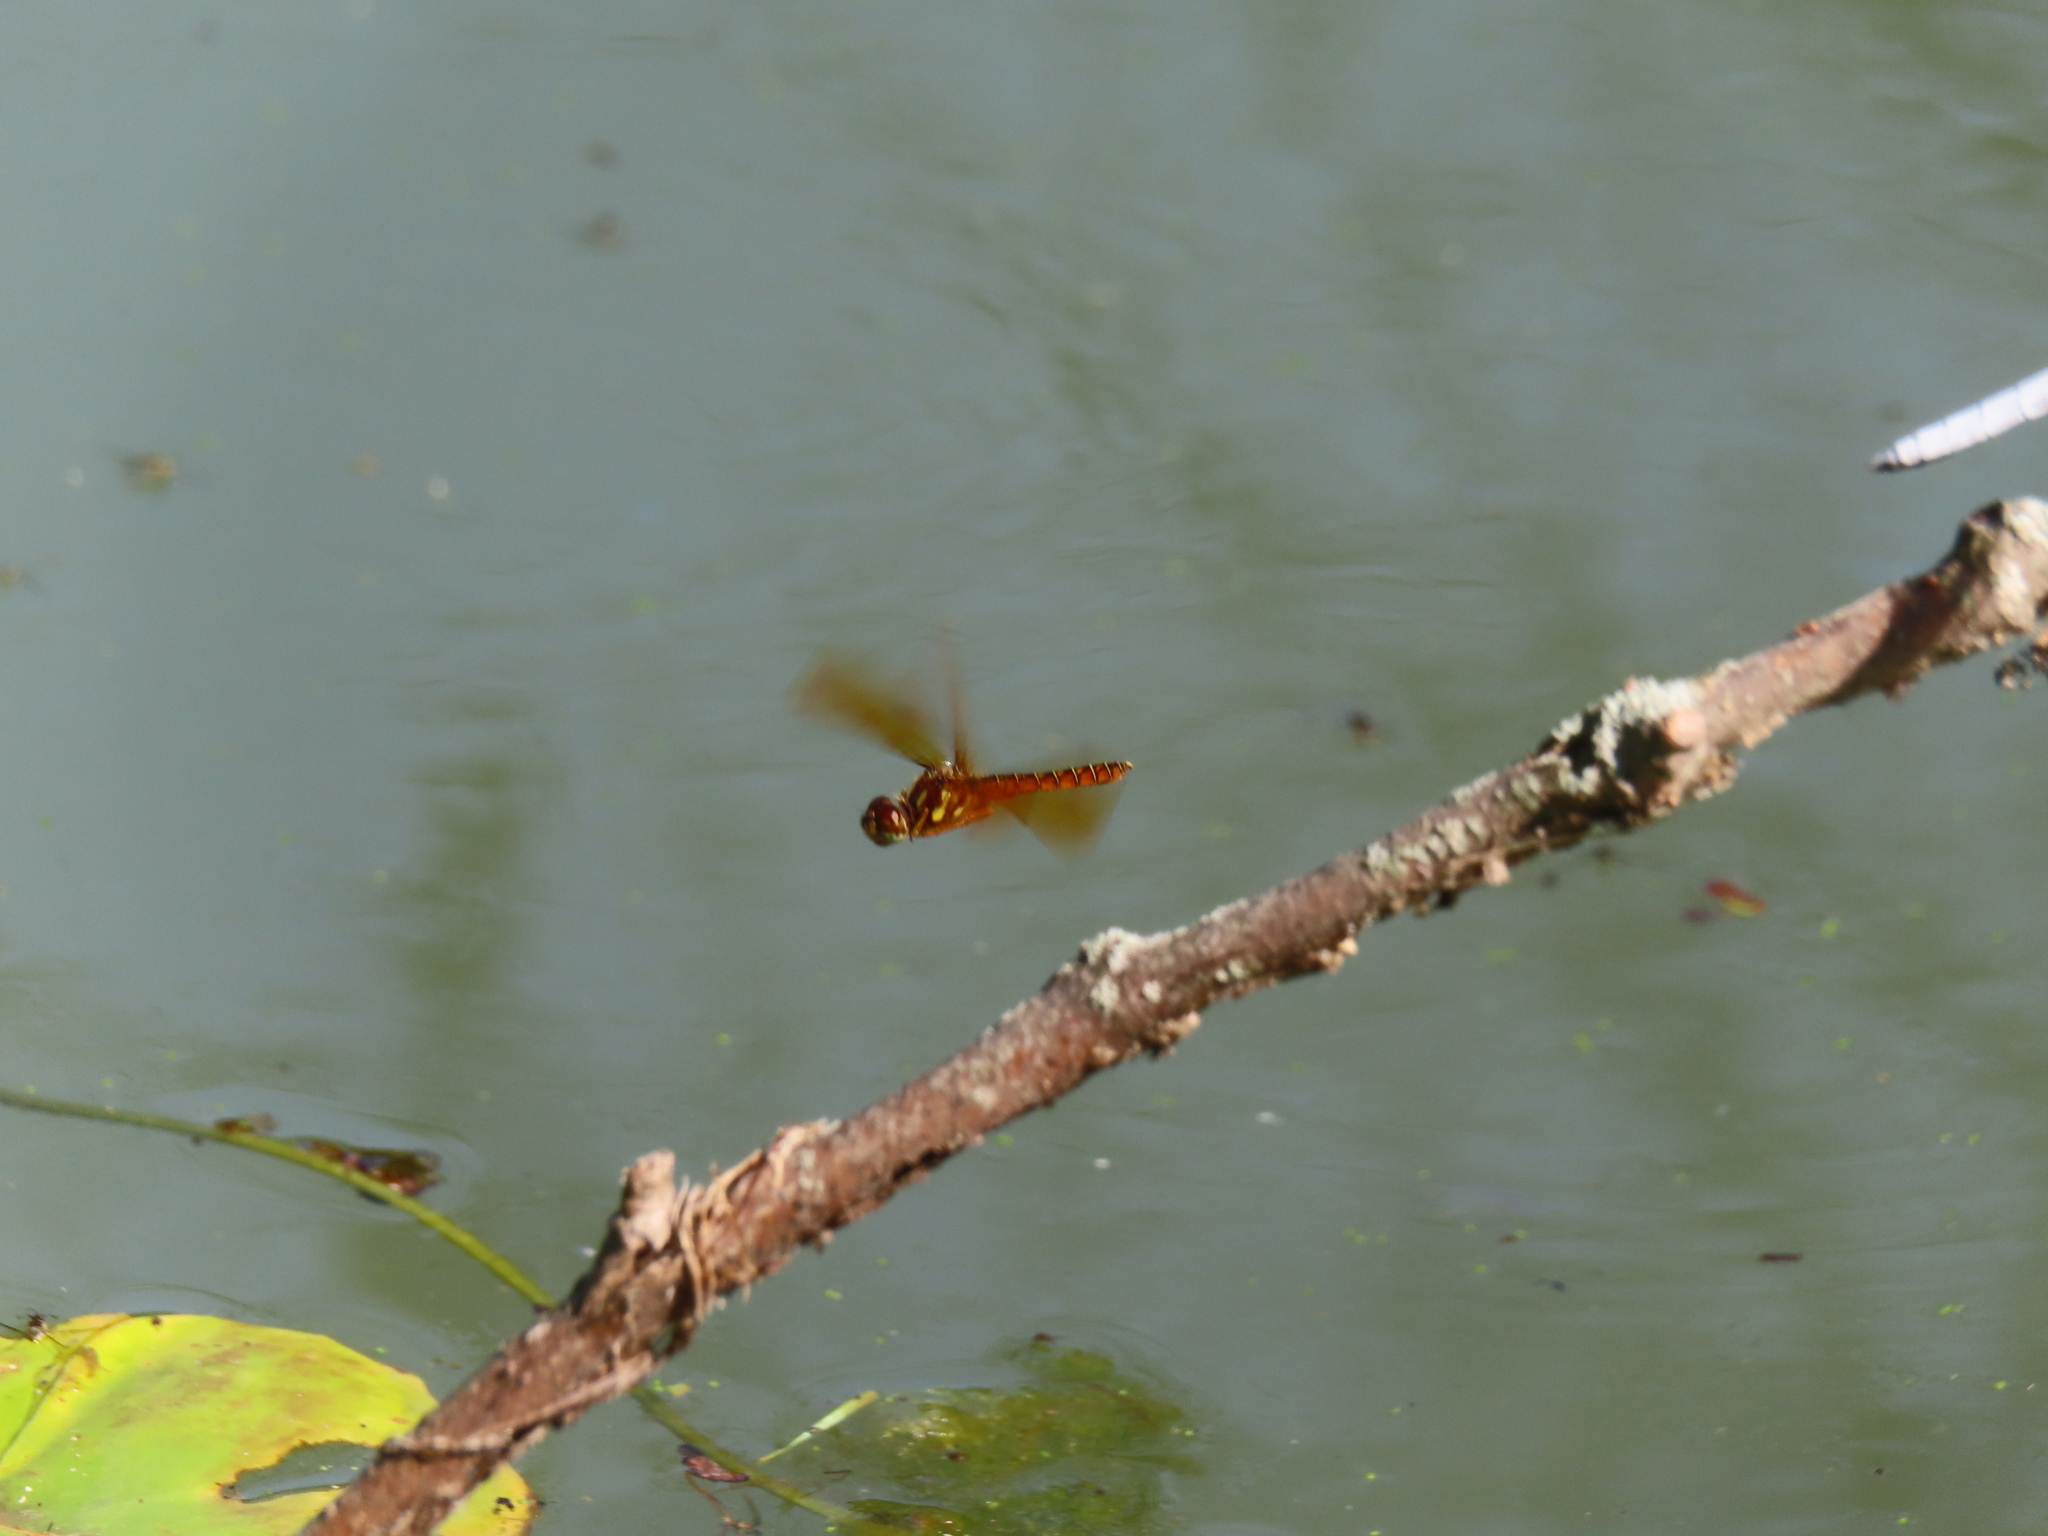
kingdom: Animalia
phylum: Arthropoda
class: Insecta
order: Odonata
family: Libellulidae
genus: Perithemis
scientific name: Perithemis tenera
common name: Eastern amberwing
